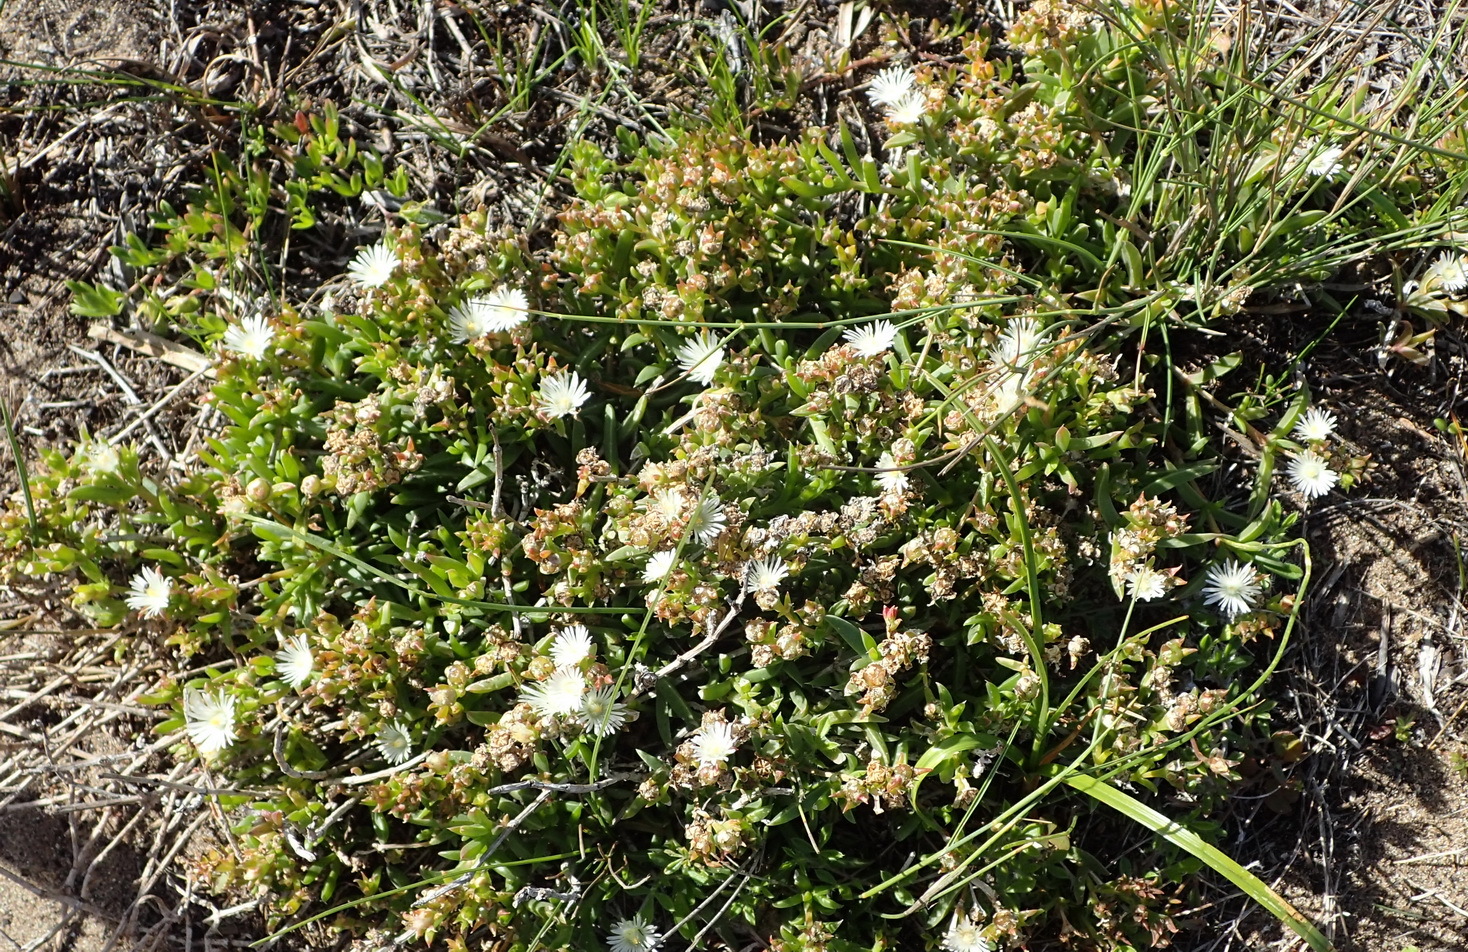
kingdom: Plantae
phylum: Tracheophyta
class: Magnoliopsida
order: Caryophyllales
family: Aizoaceae
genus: Delosperma
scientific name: Delosperma inconspicuum
